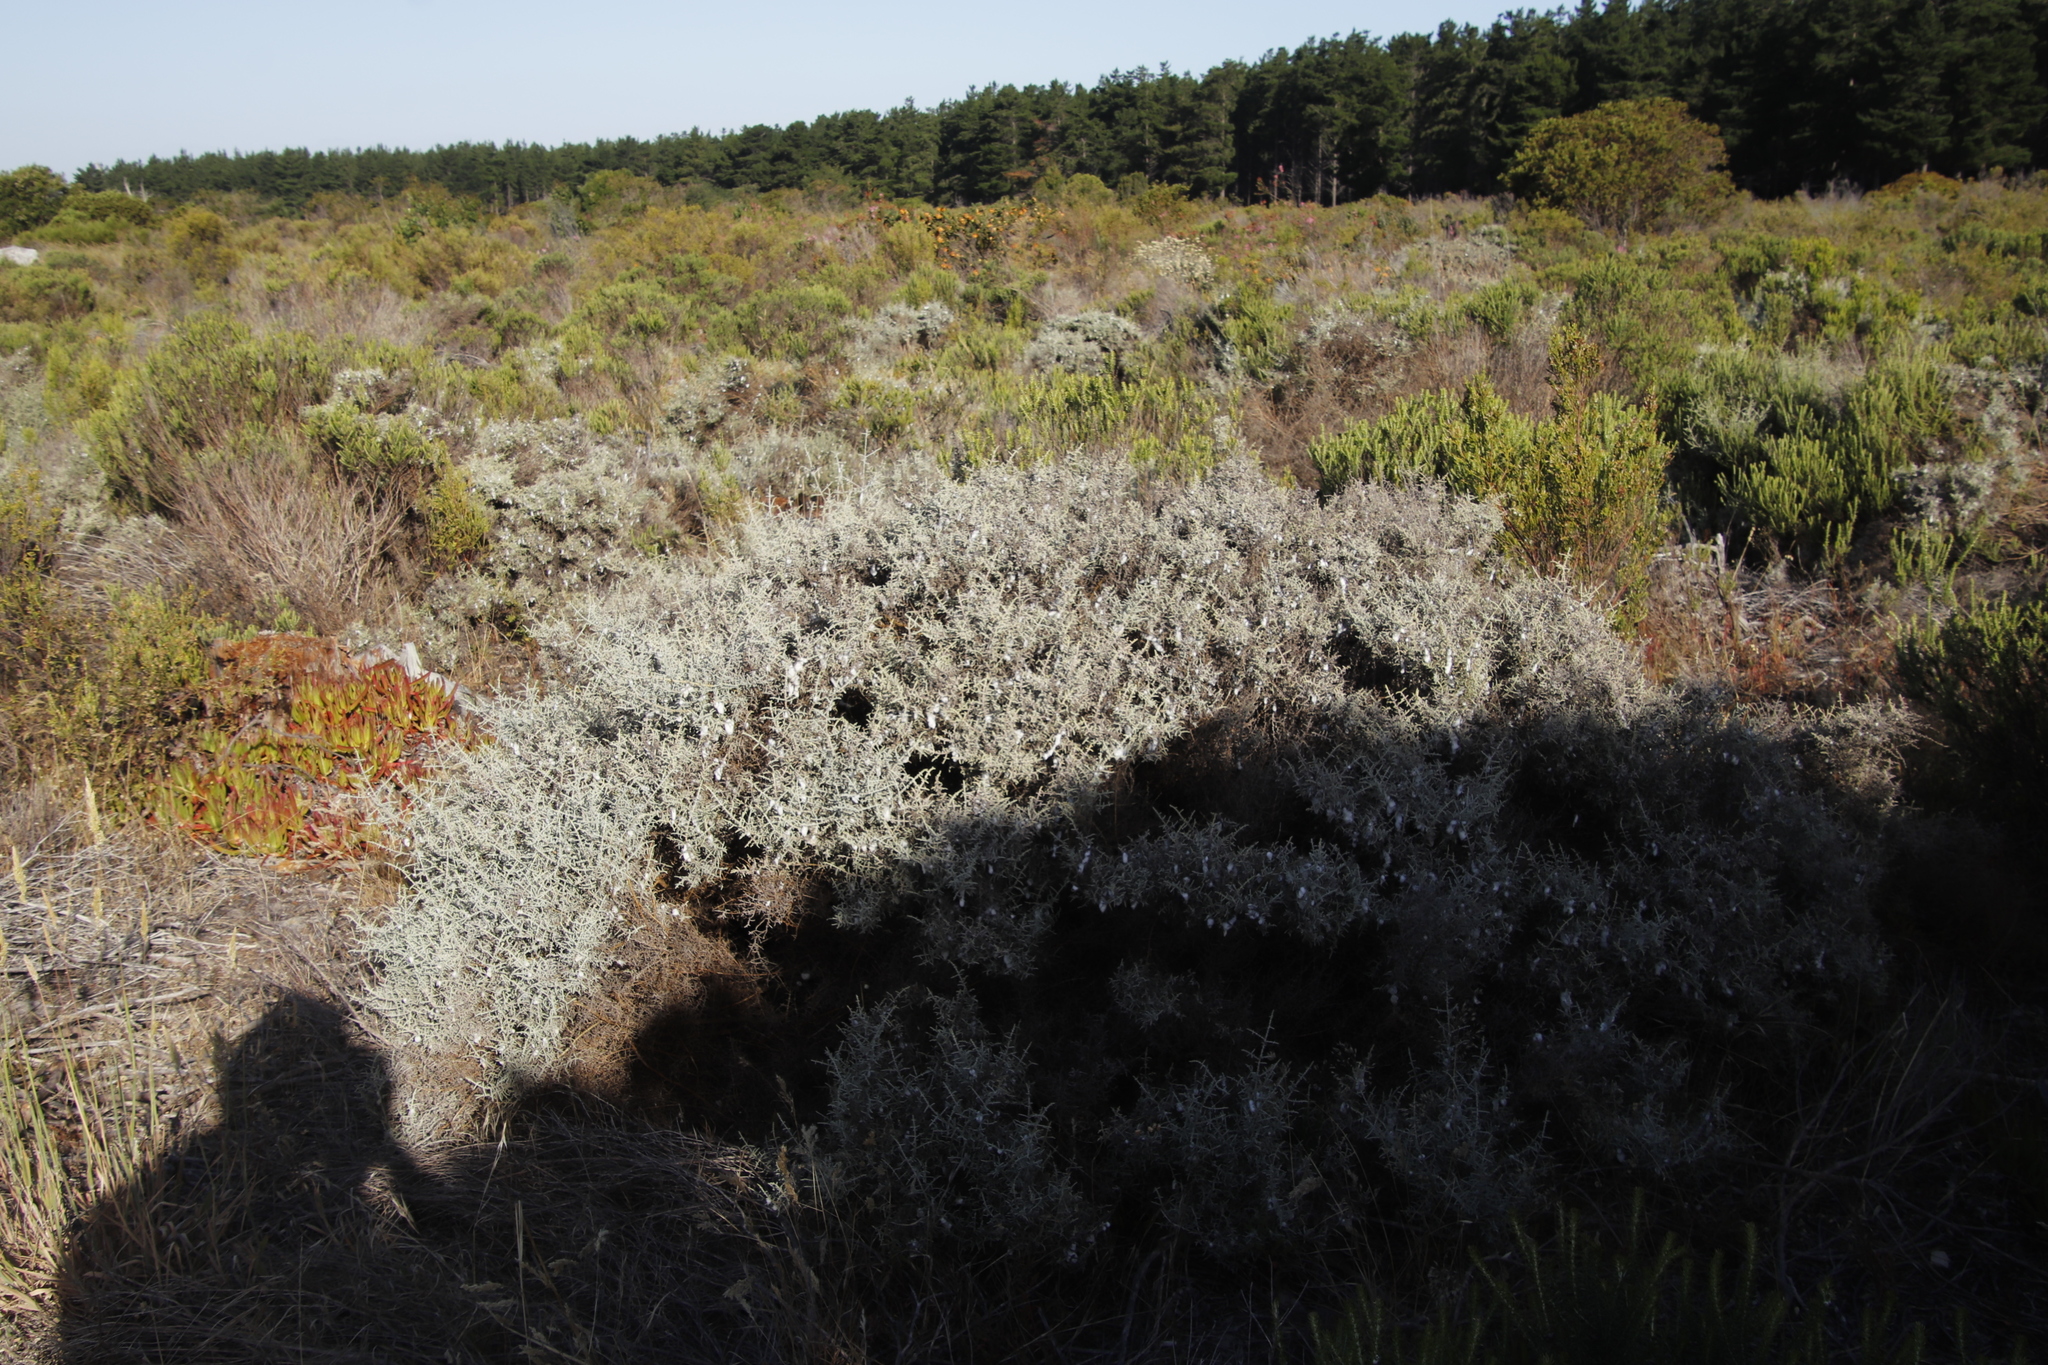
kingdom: Plantae
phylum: Tracheophyta
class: Magnoliopsida
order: Asterales
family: Asteraceae
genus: Seriphium
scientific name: Seriphium plumosum
